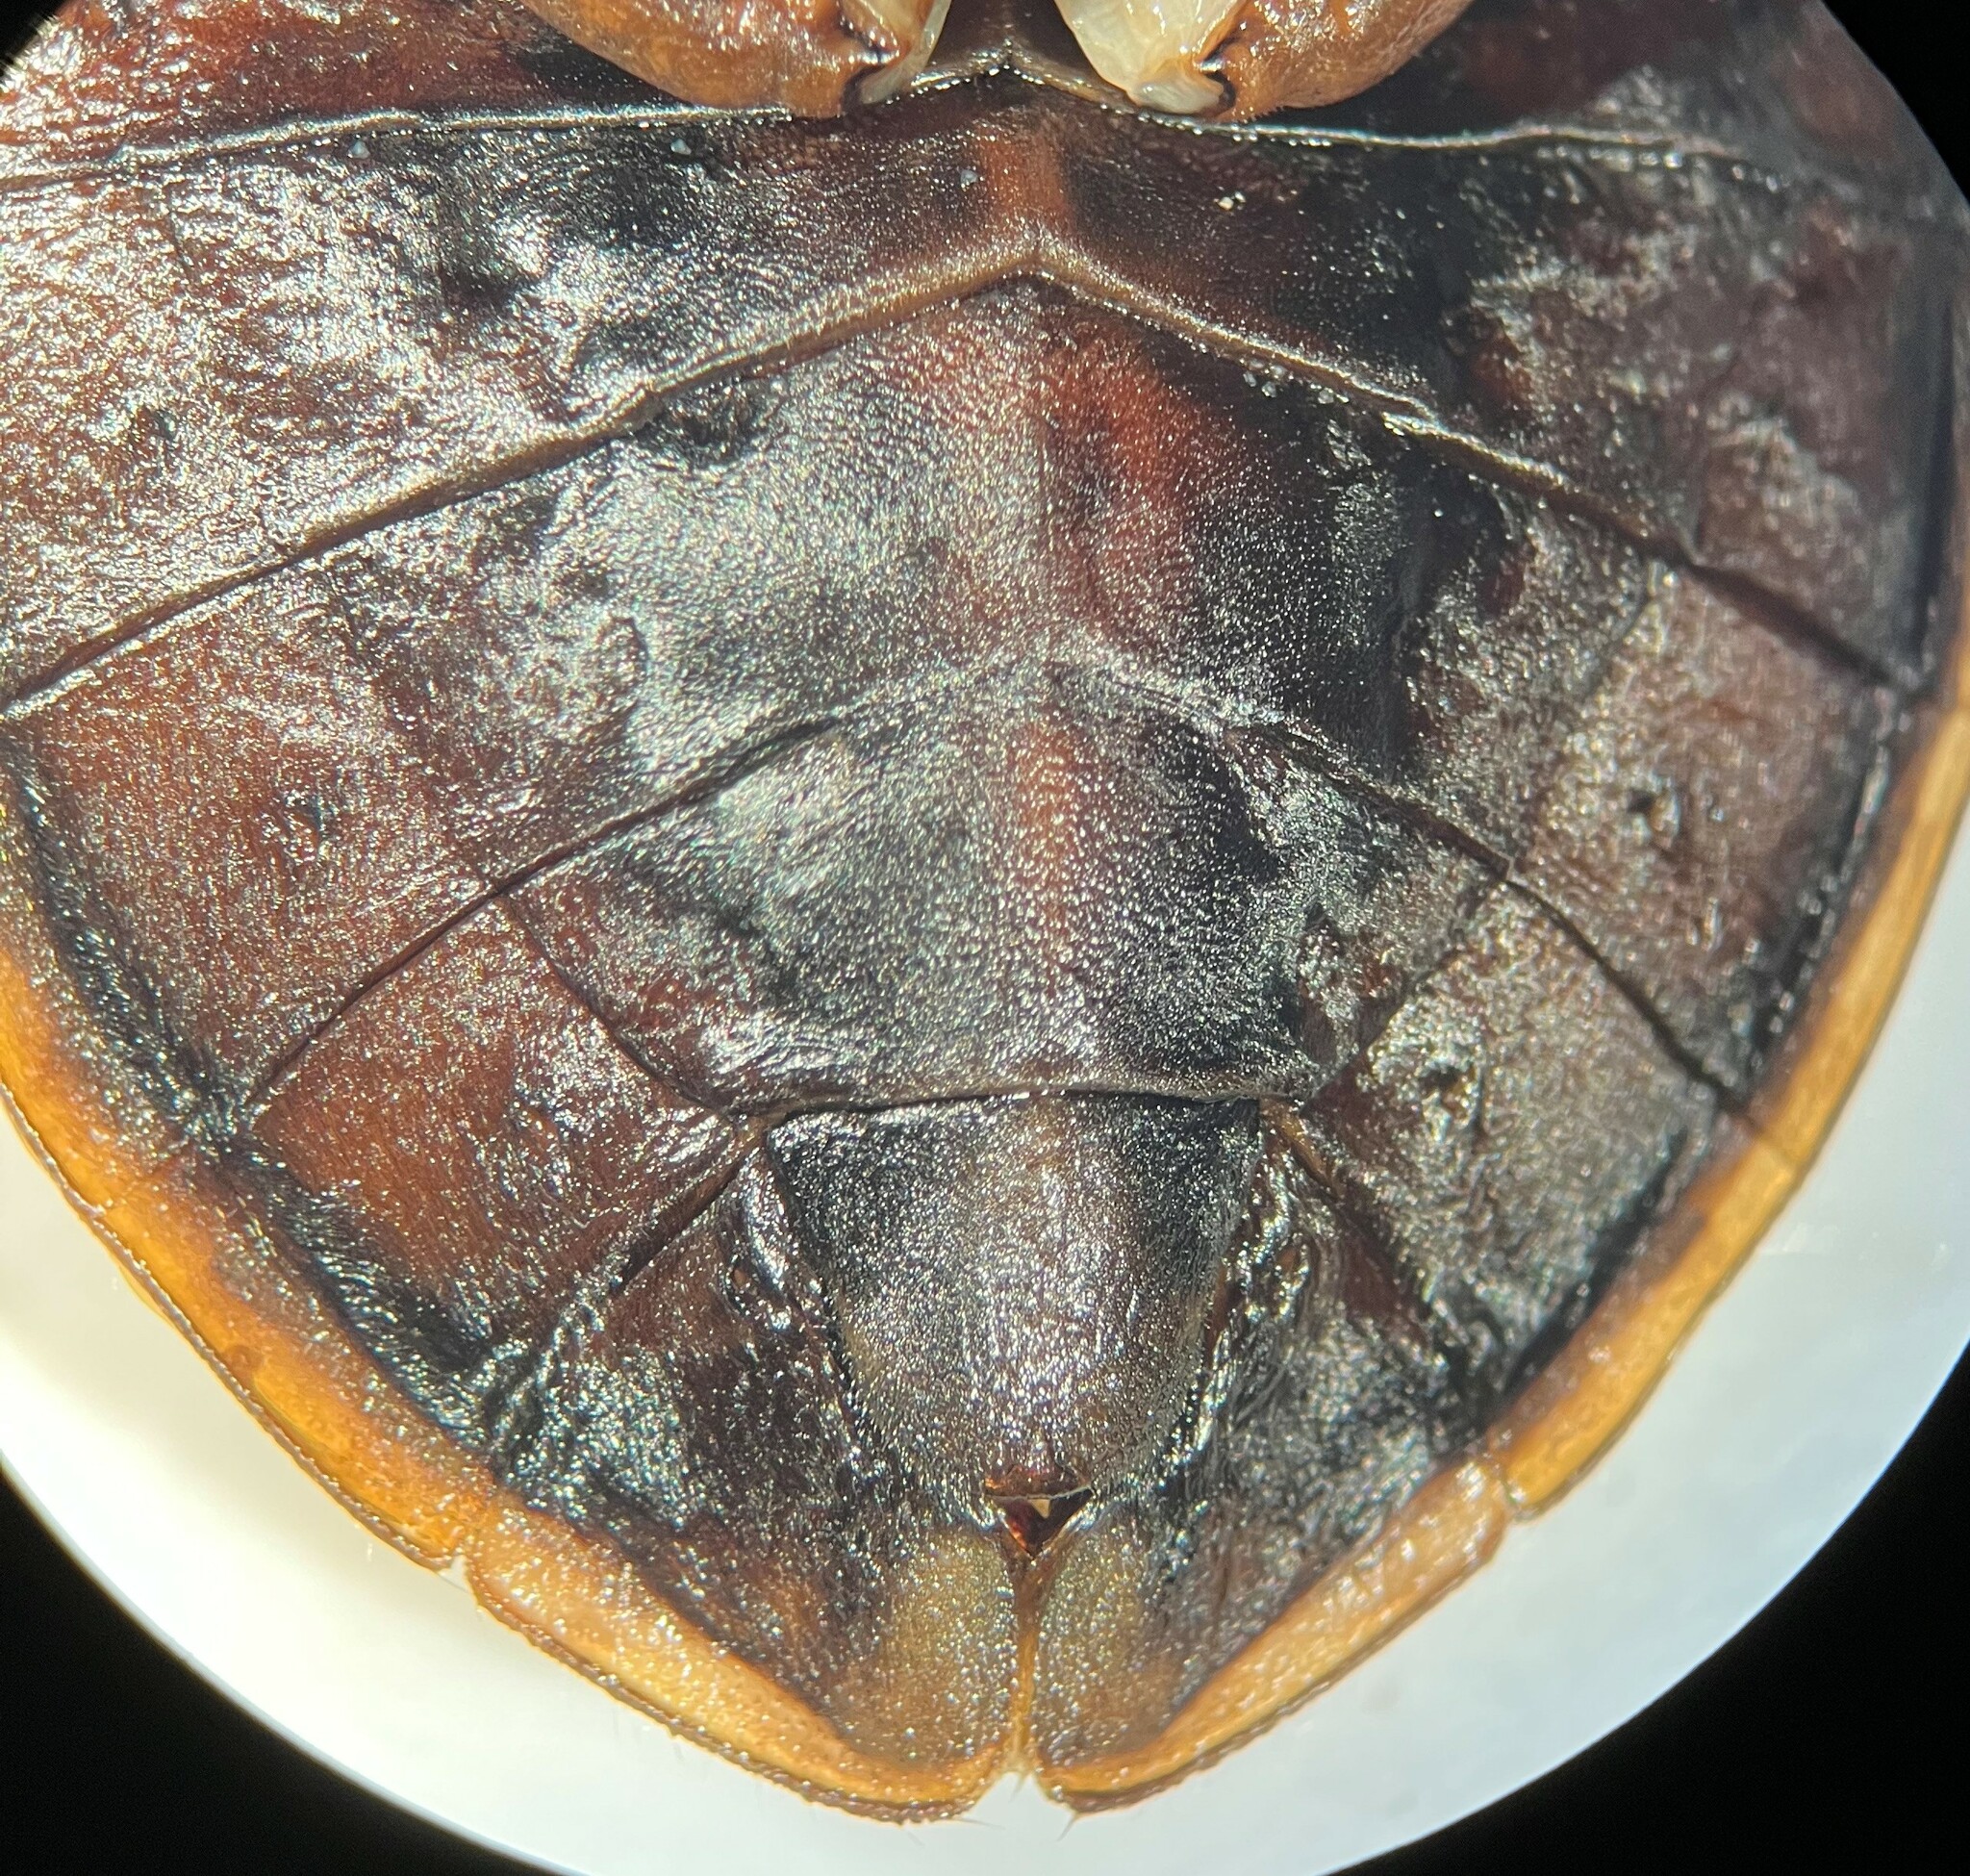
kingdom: Animalia
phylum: Arthropoda
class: Insecta
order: Hemiptera
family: Belostomatidae
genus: Abedus
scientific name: Abedus herberti
